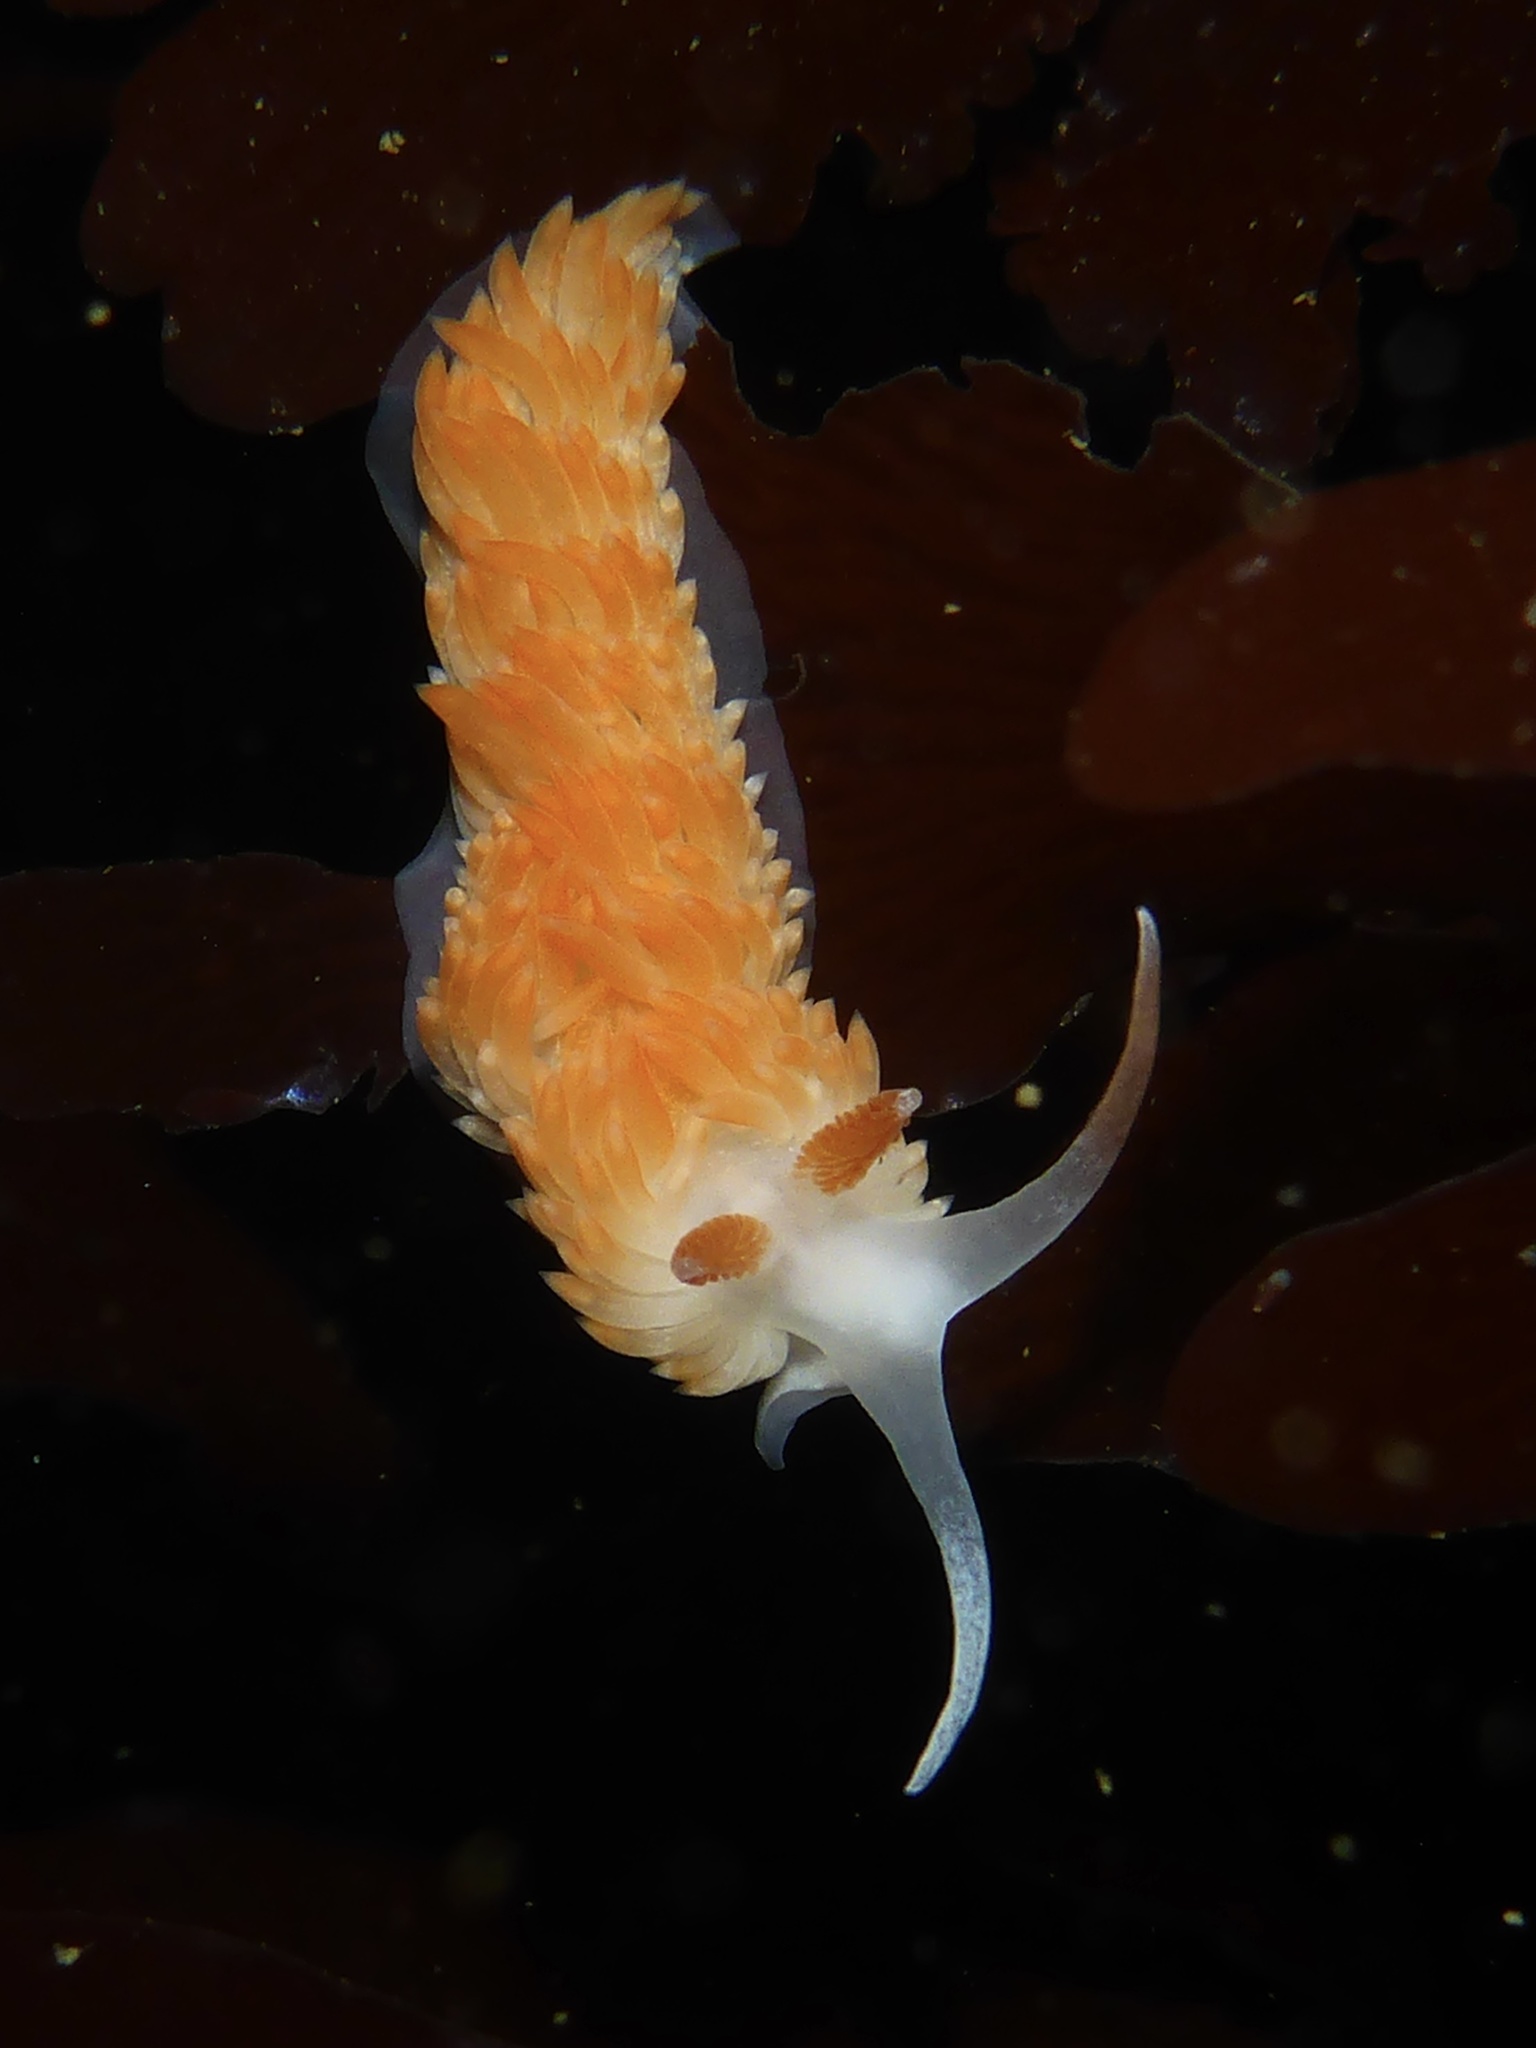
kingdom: Animalia
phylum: Mollusca
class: Gastropoda
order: Nudibranchia
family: Aeolidiidae
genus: Anteaeolidiella
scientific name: Anteaeolidiella oliviae
